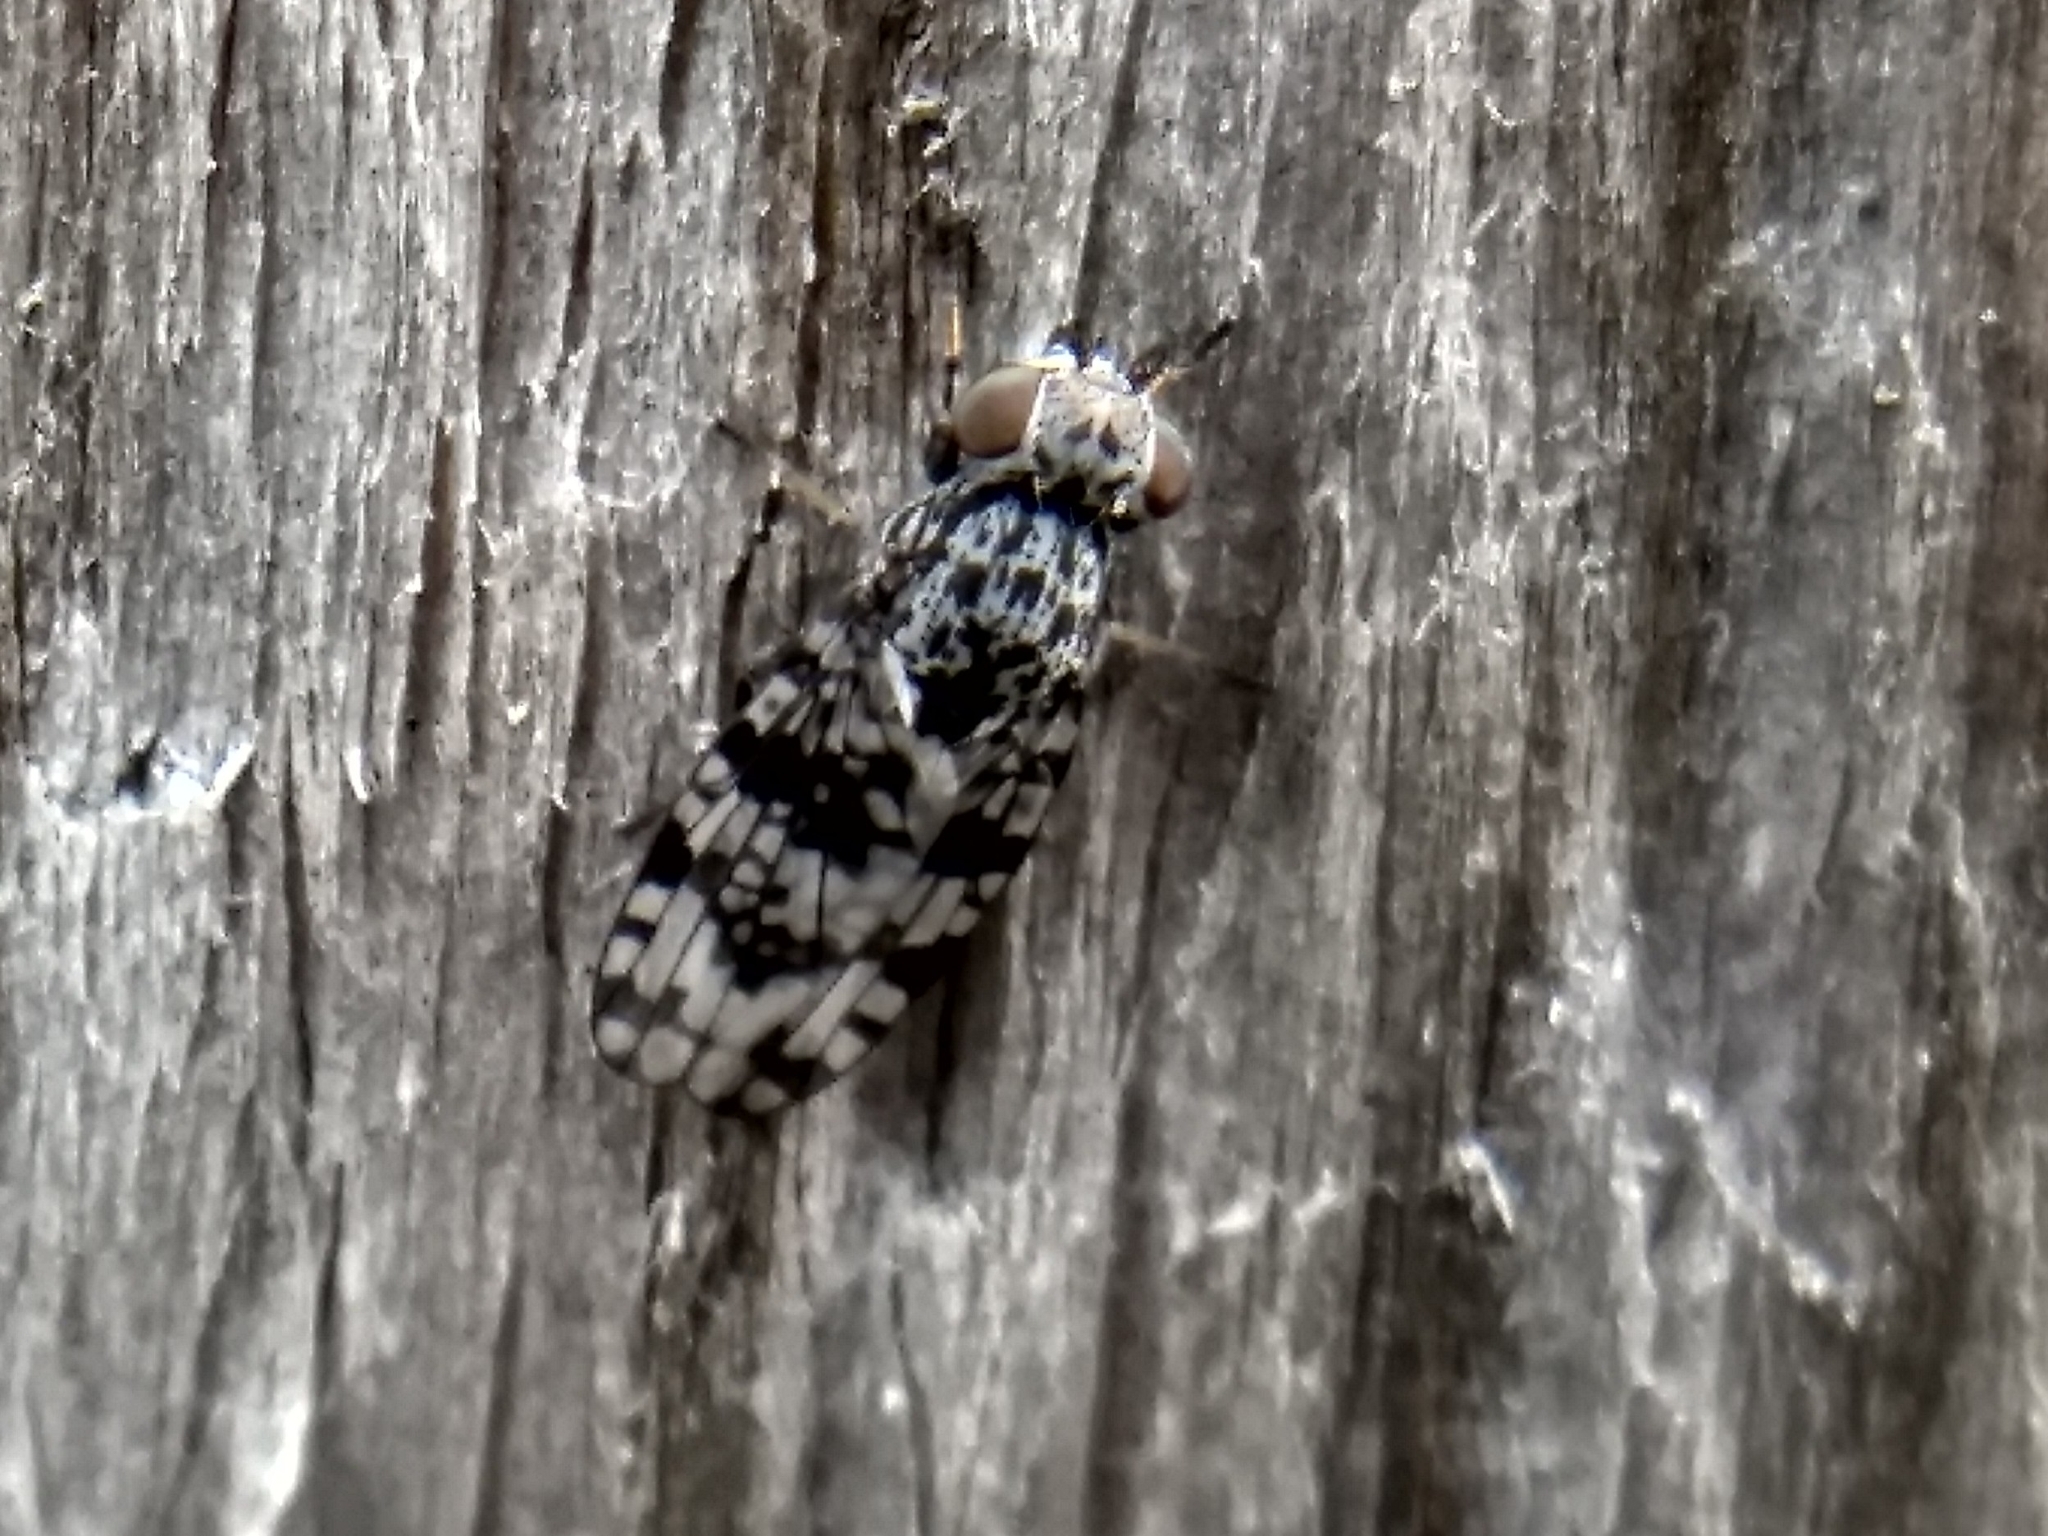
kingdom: Animalia
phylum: Arthropoda
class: Insecta
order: Diptera
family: Ulidiidae
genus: Pseudotephritis
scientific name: Pseudotephritis corticalis
